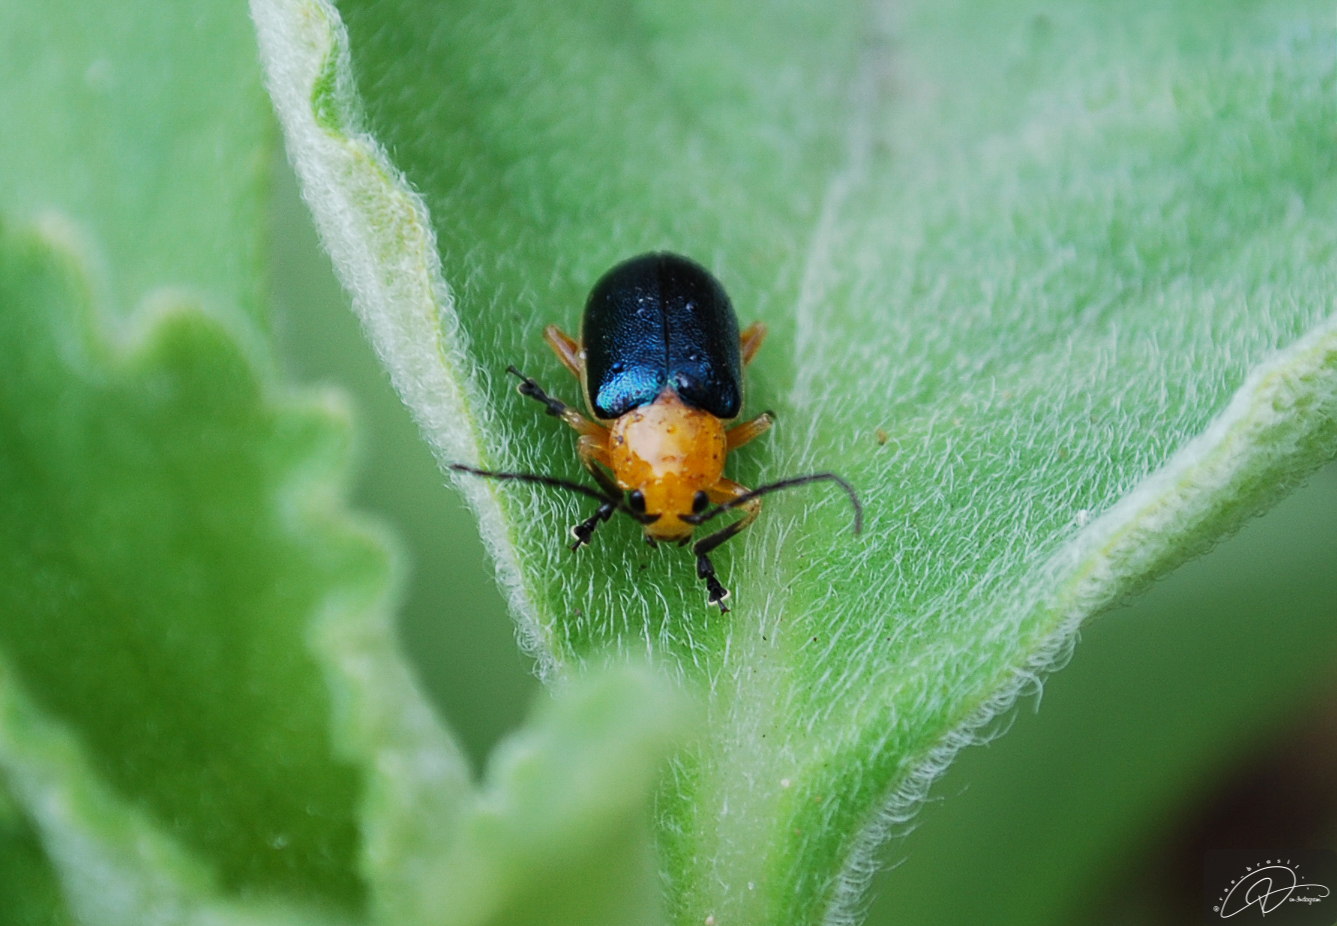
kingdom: Animalia
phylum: Arthropoda
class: Insecta
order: Coleoptera
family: Chrysomelidae
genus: Cacoscelis
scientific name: Cacoscelis marginata
